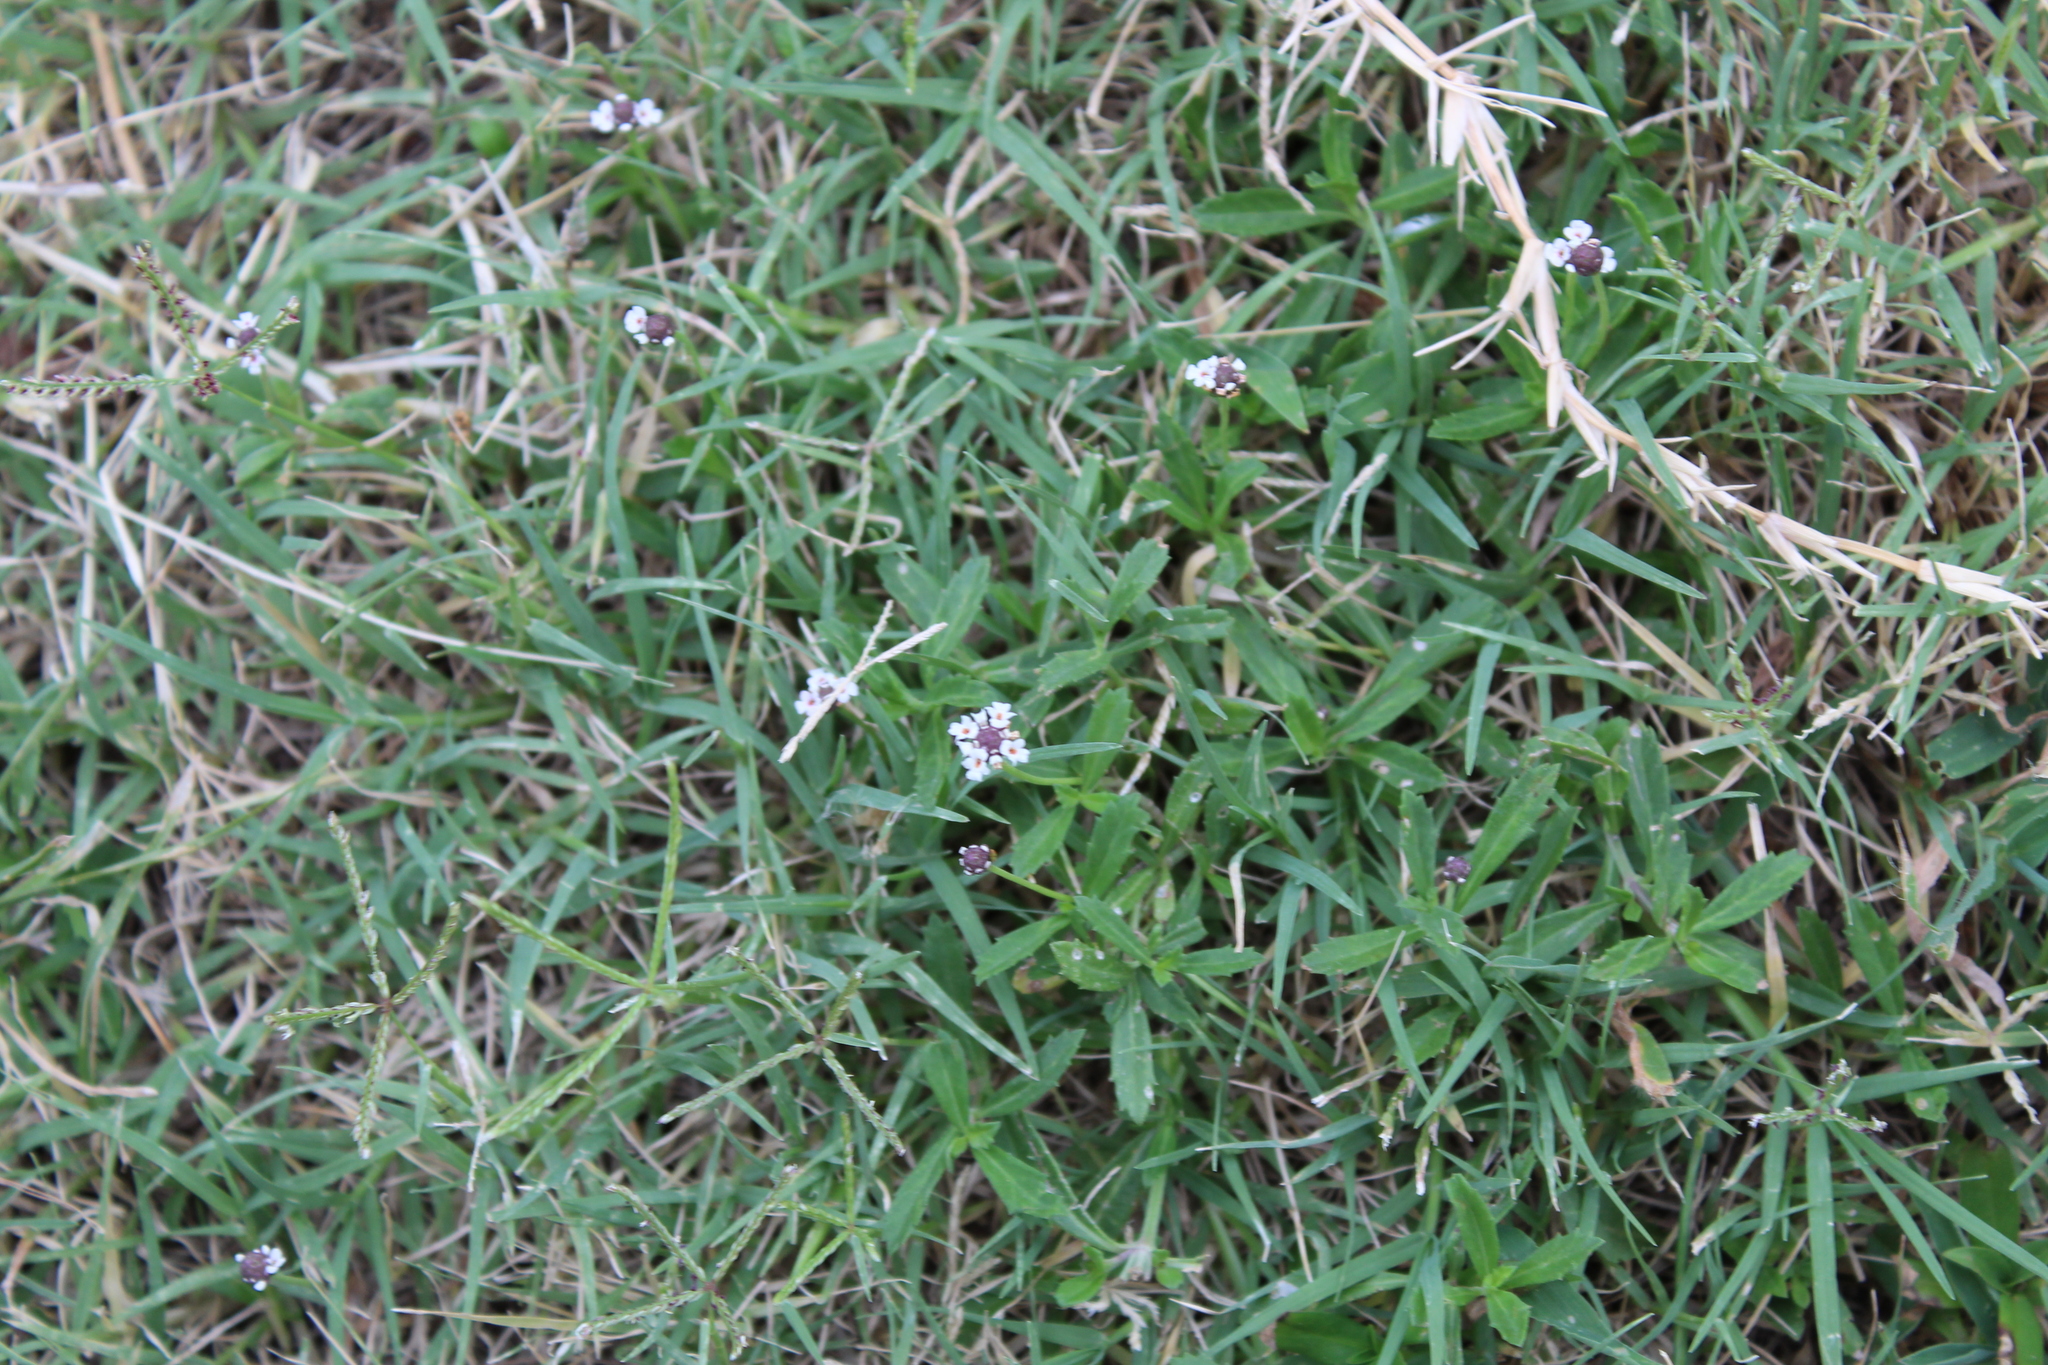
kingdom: Plantae
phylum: Tracheophyta
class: Magnoliopsida
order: Lamiales
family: Verbenaceae
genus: Phyla
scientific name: Phyla nodiflora
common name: Frogfruit
